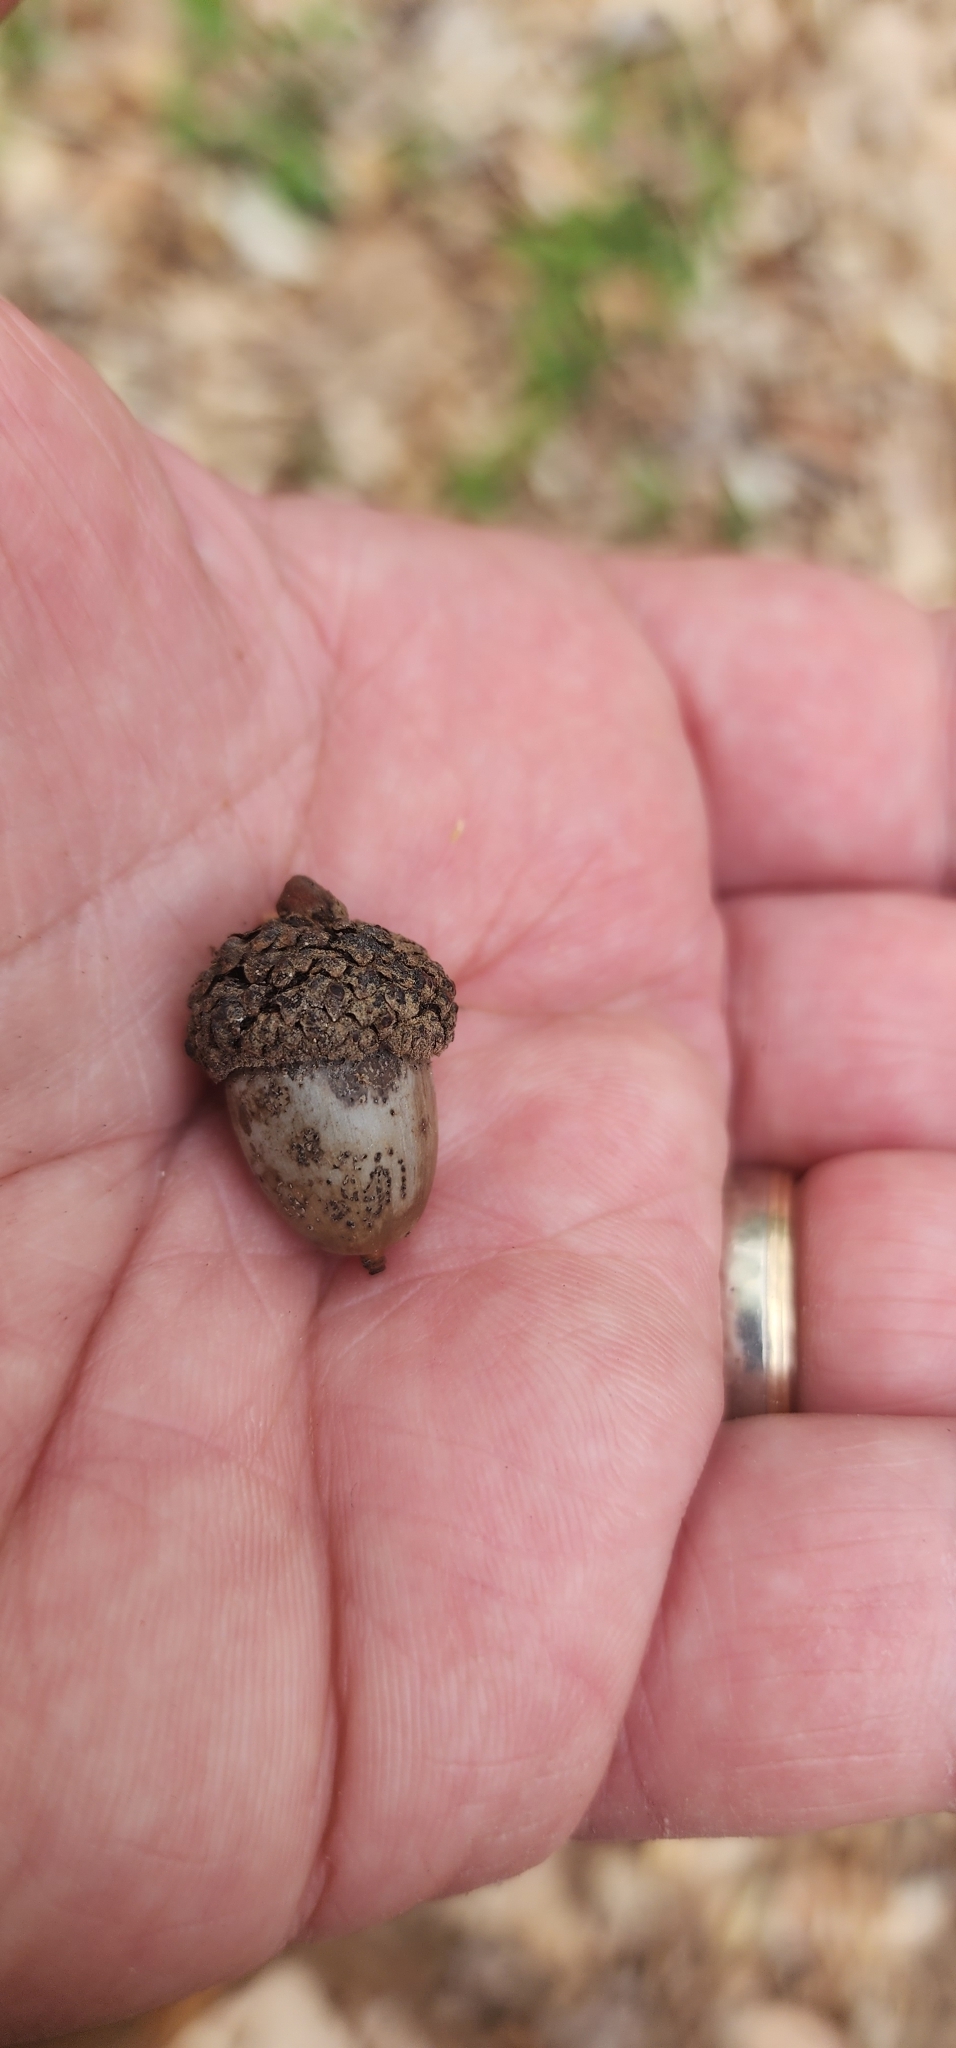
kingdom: Plantae
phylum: Tracheophyta
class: Magnoliopsida
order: Fagales
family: Fagaceae
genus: Quercus
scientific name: Quercus alba
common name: White oak
